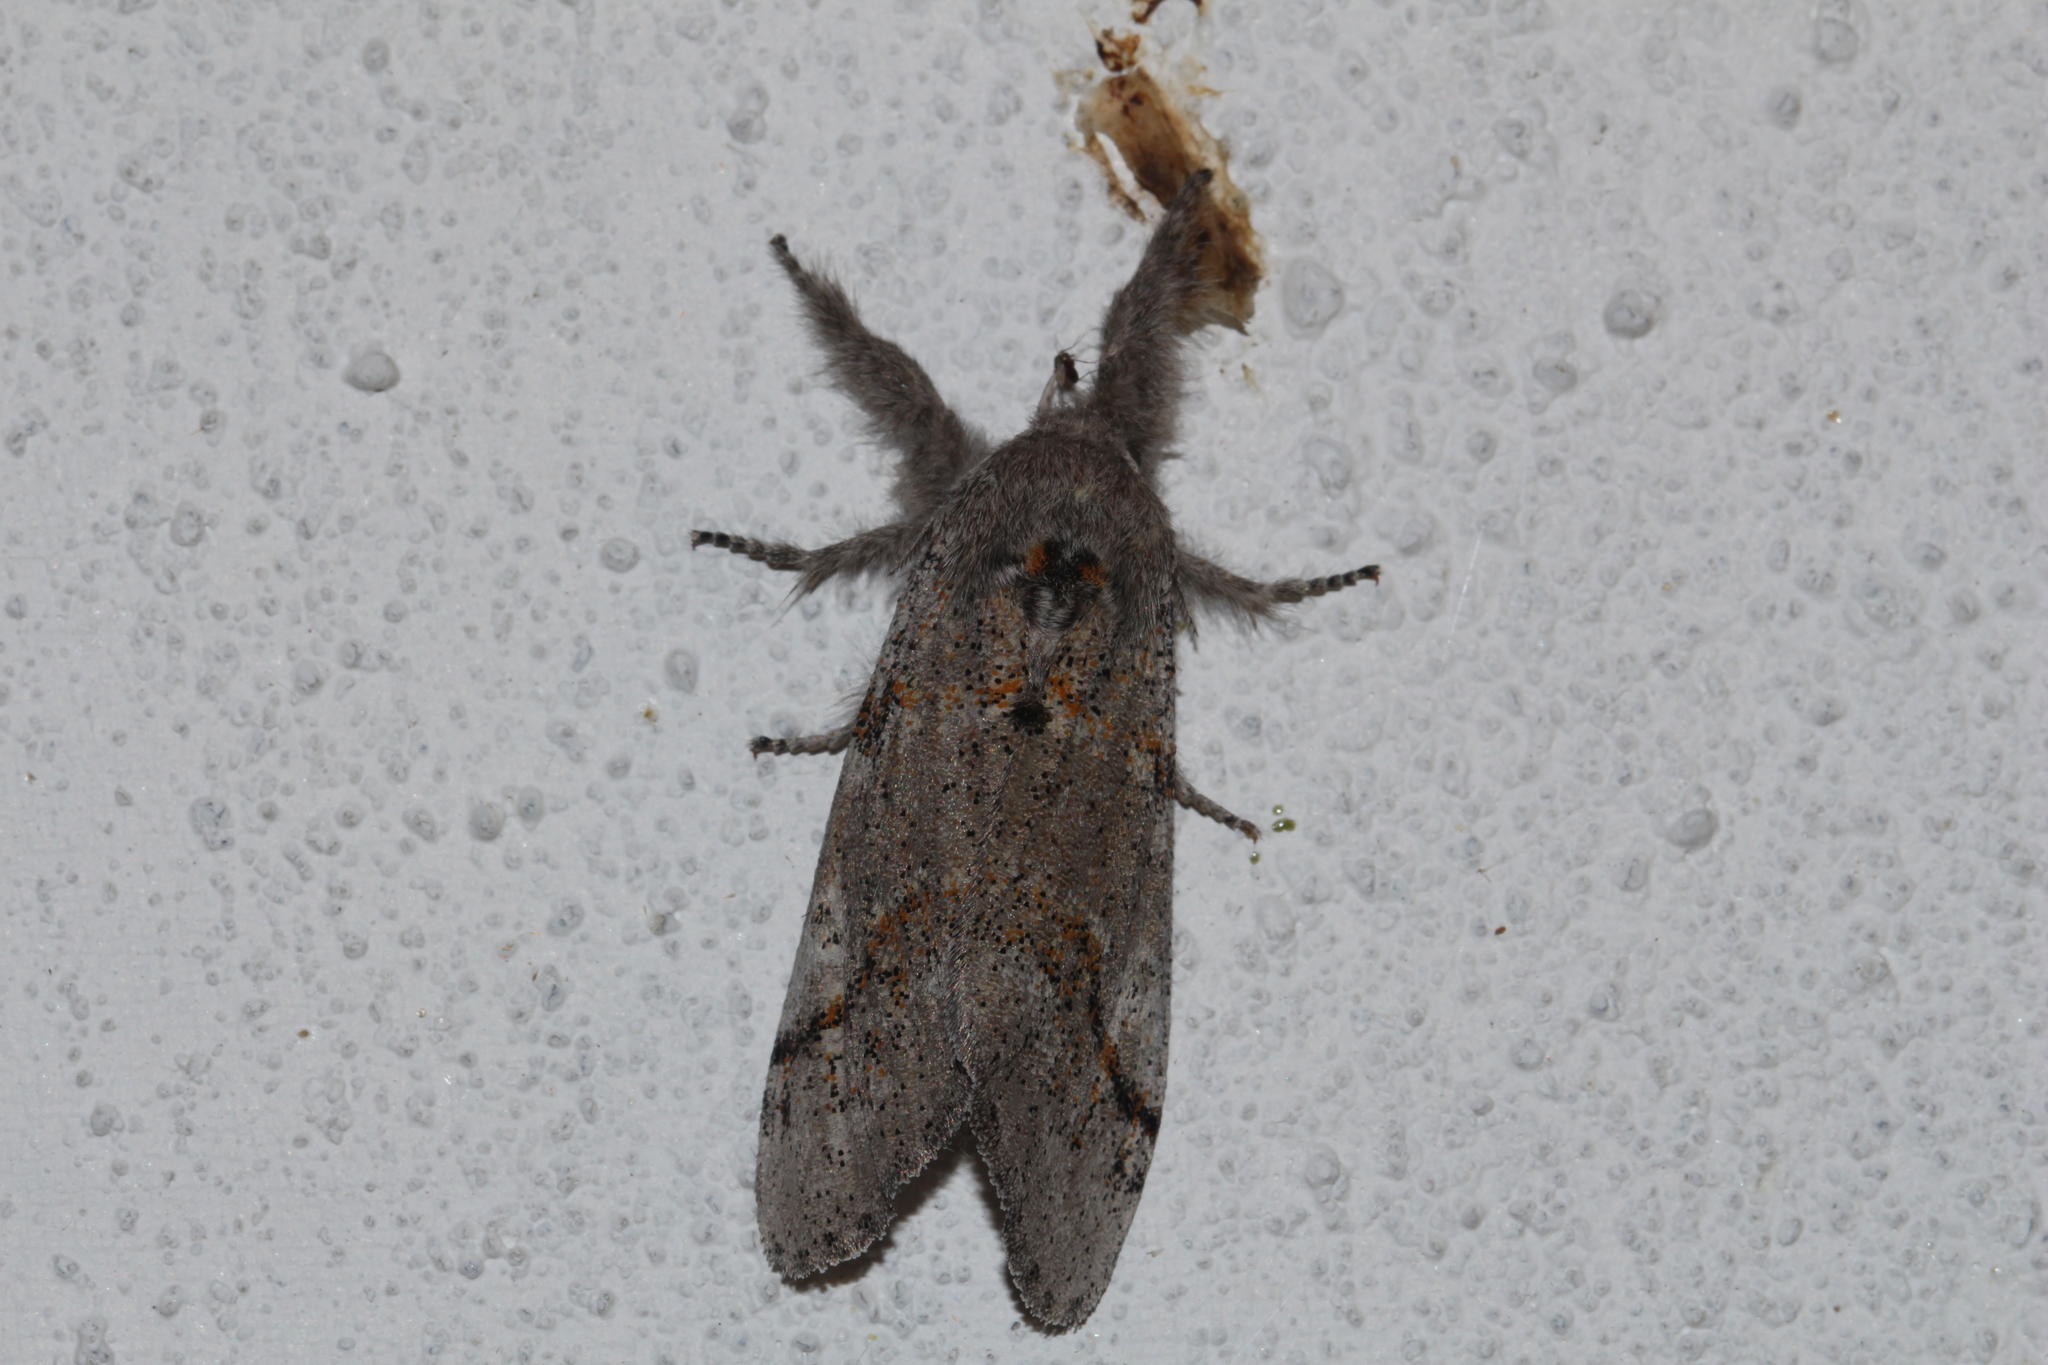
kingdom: Animalia
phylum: Arthropoda
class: Insecta
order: Lepidoptera
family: Erebidae
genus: Calliteara
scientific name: Calliteara Dicallomera fascelina
